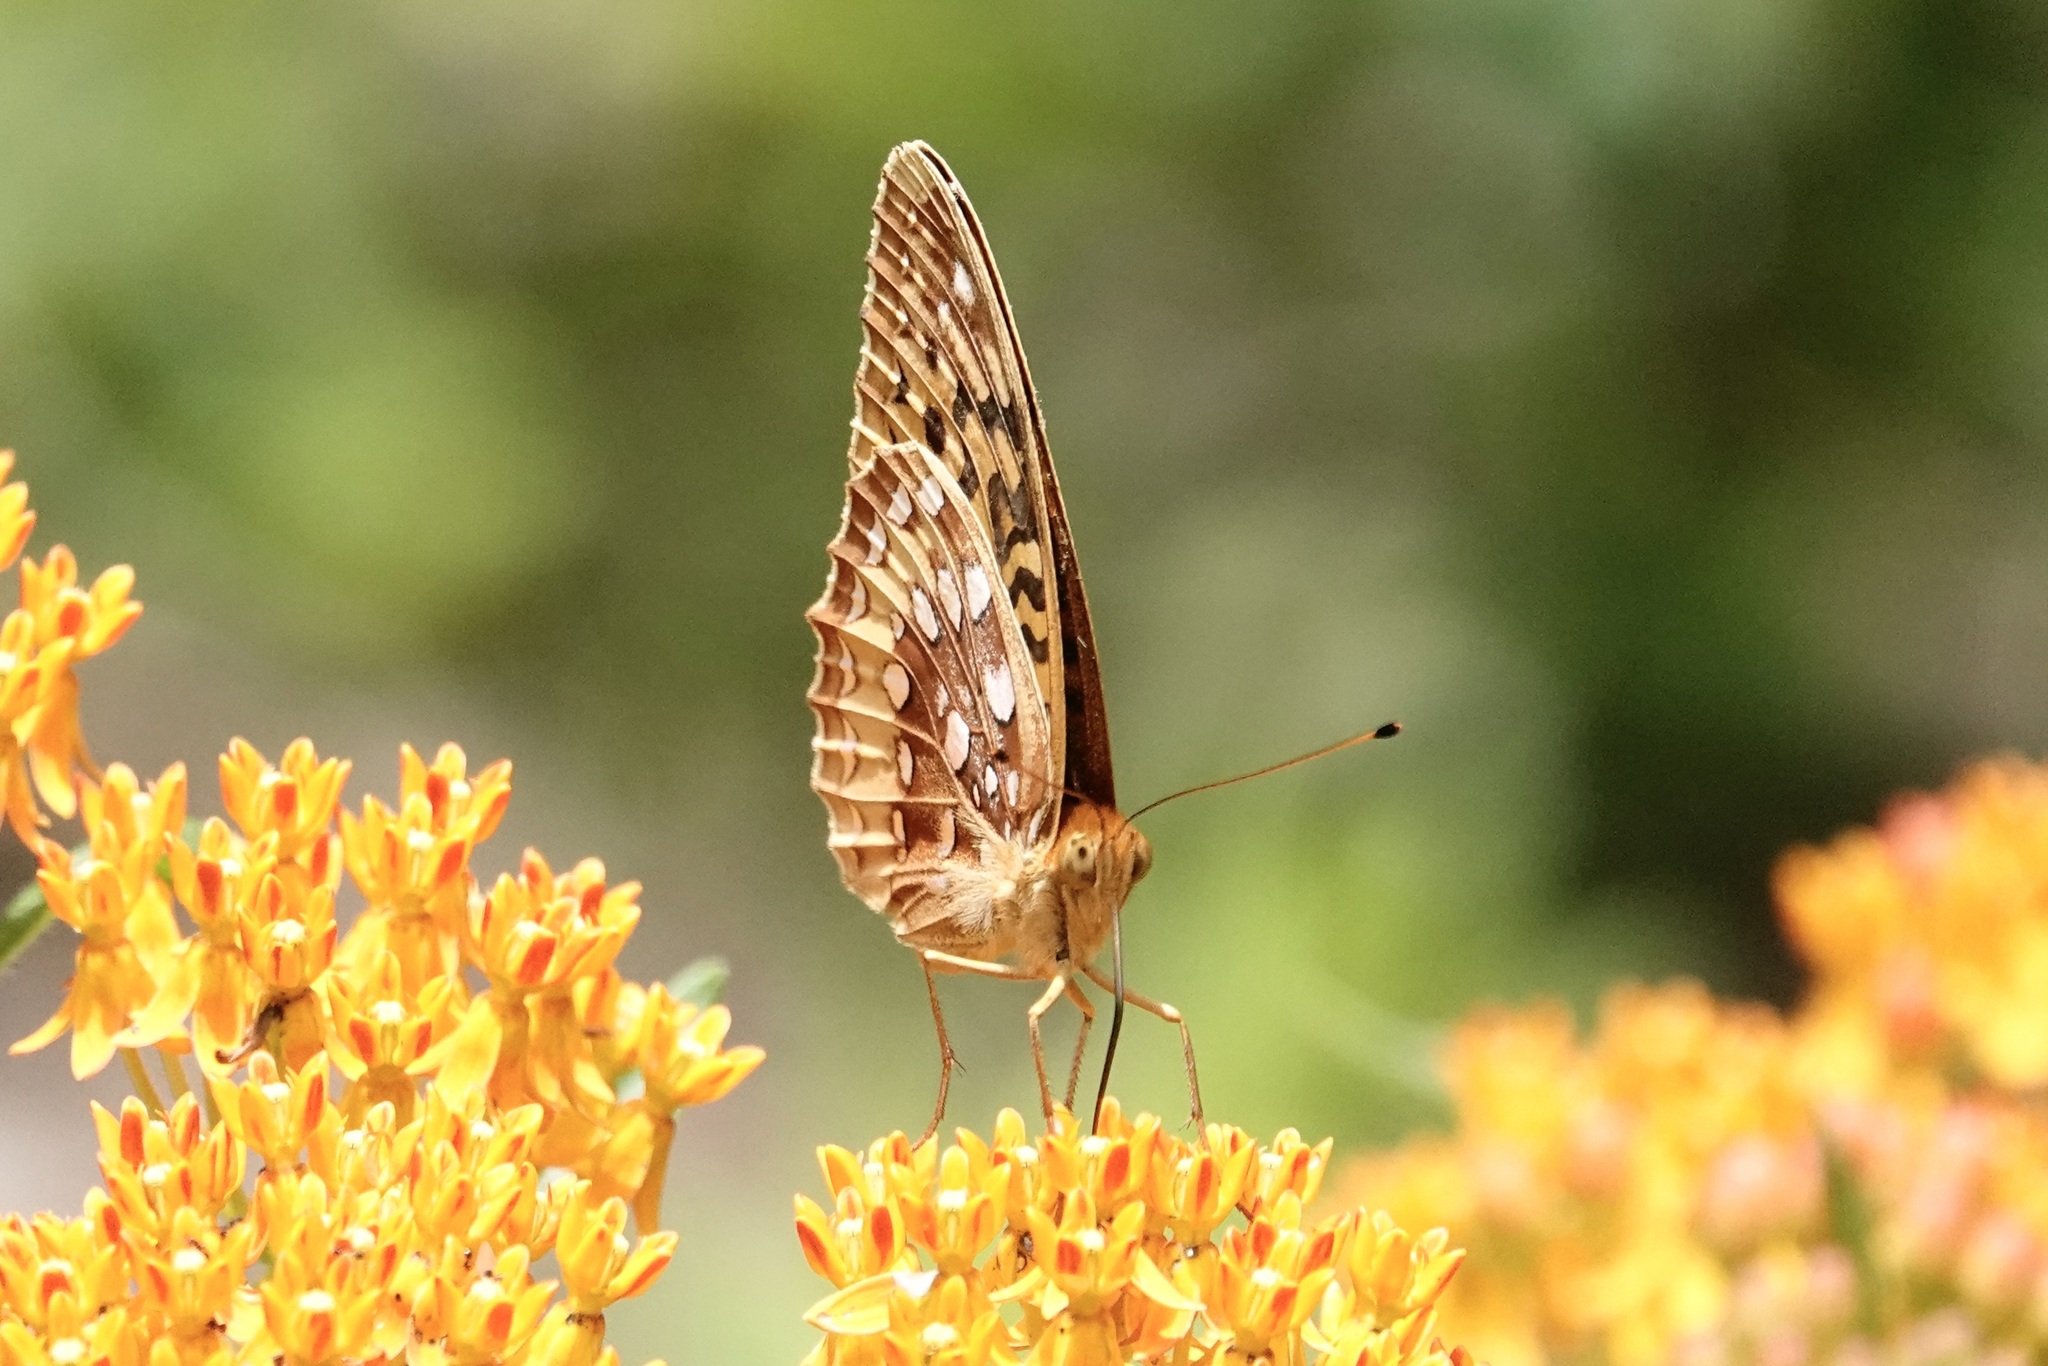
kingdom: Animalia
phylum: Arthropoda
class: Insecta
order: Lepidoptera
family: Nymphalidae
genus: Speyeria
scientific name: Speyeria cybele
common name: Great spangled fritillary
